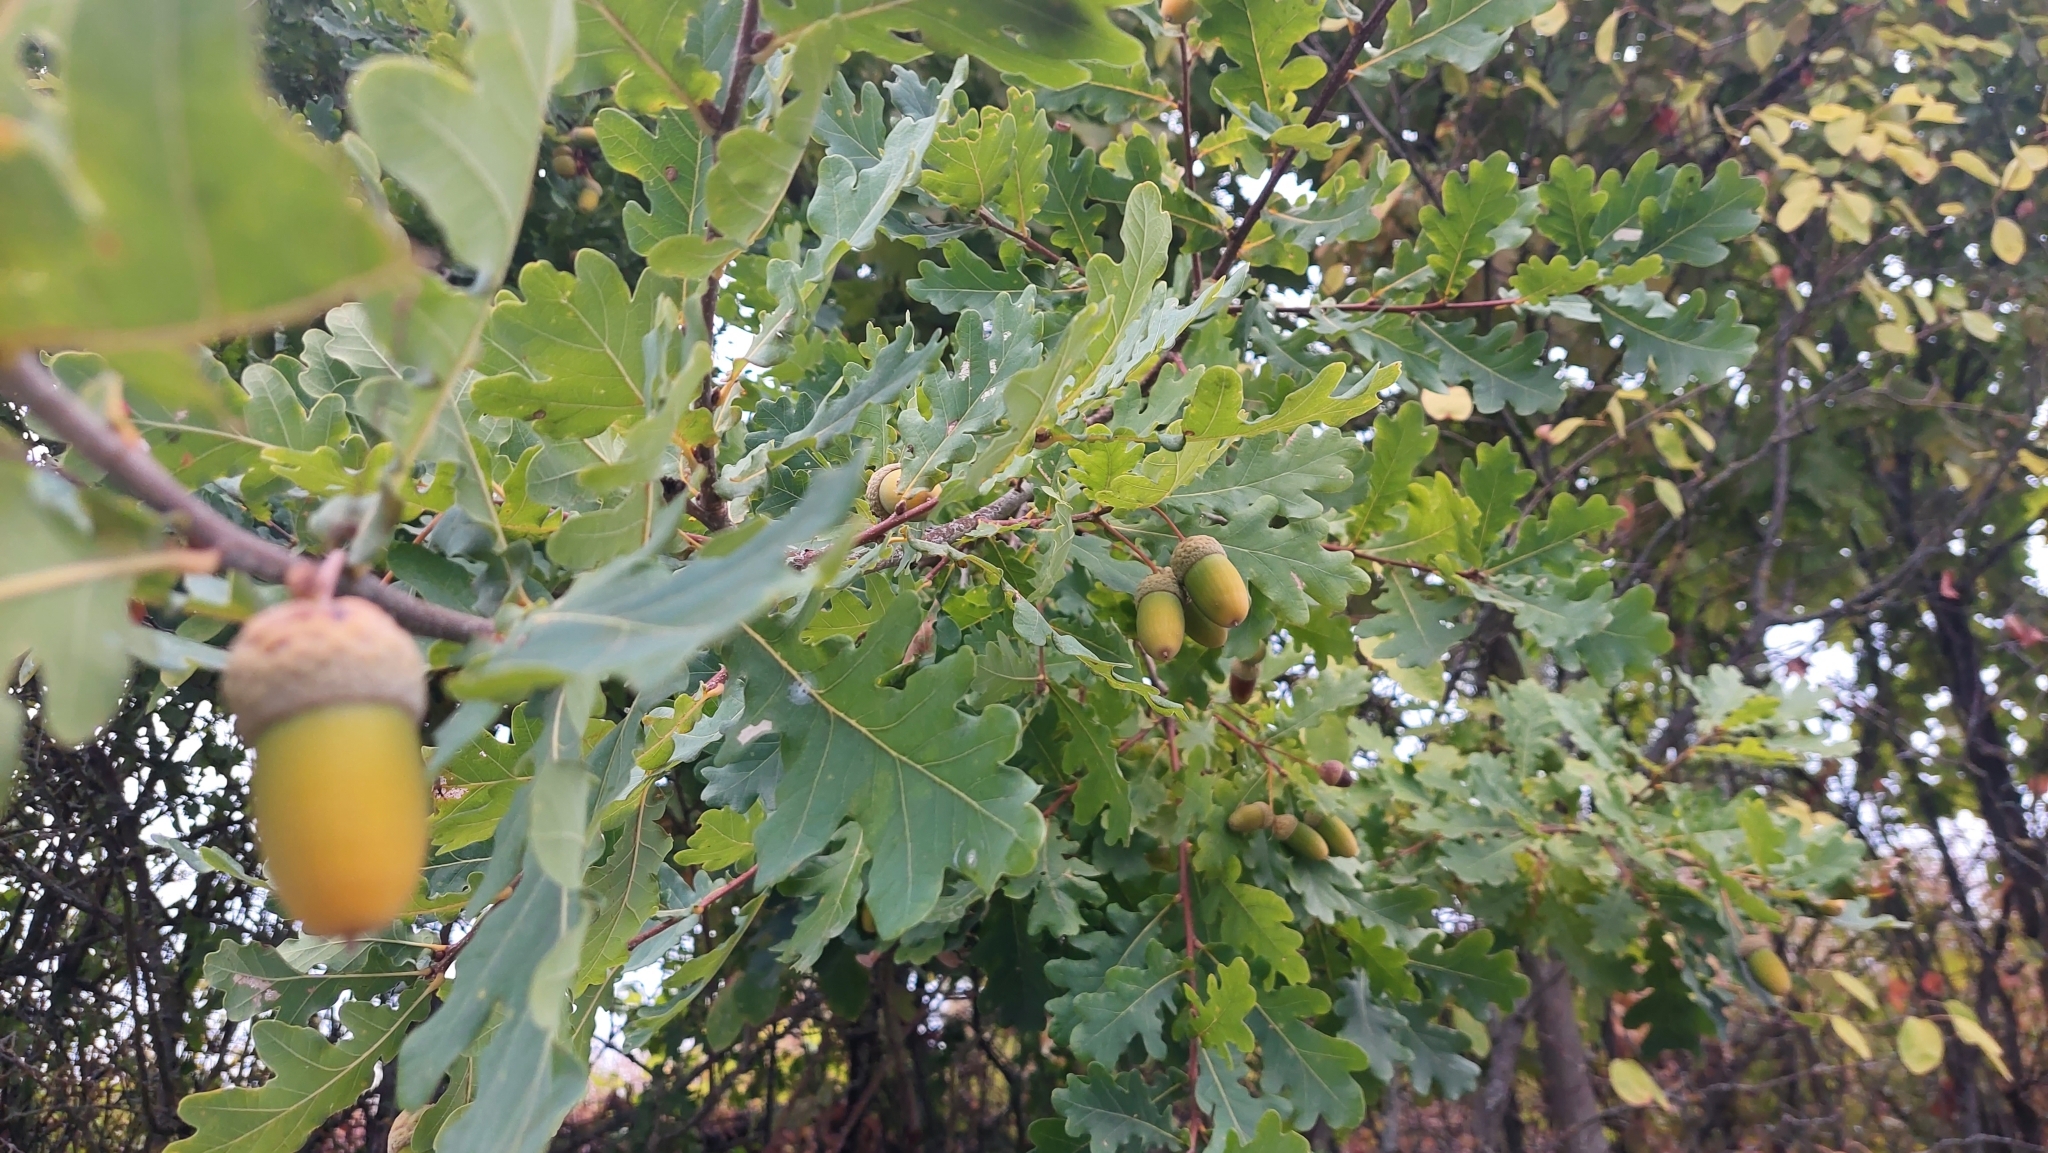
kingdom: Plantae
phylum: Tracheophyta
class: Magnoliopsida
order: Fagales
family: Fagaceae
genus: Quercus
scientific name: Quercus robur
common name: Pedunculate oak
